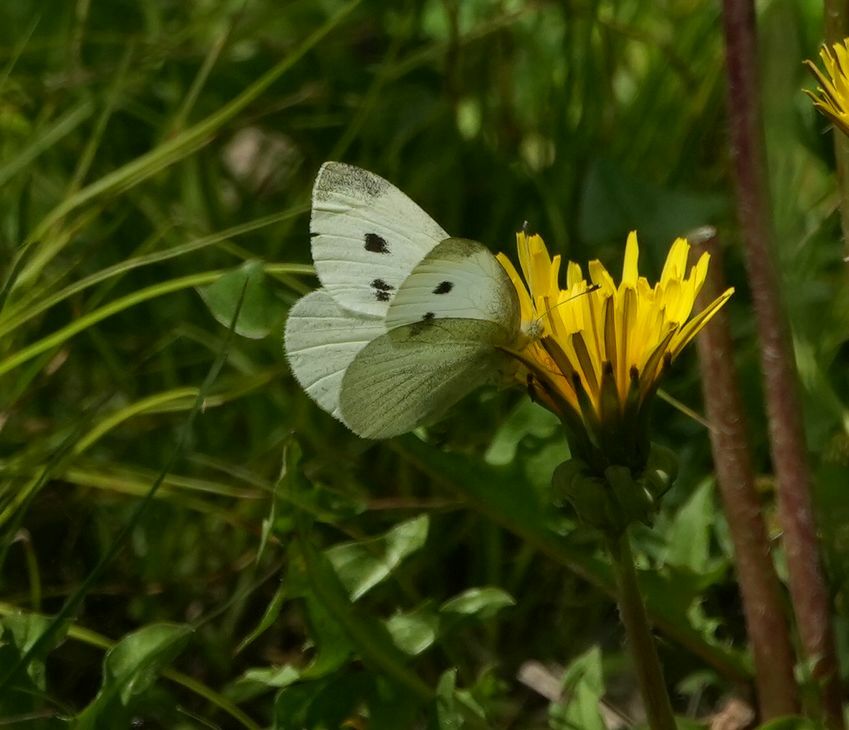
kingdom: Animalia
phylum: Arthropoda
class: Insecta
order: Lepidoptera
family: Pieridae
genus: Pieris
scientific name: Pieris rapae
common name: Small white
